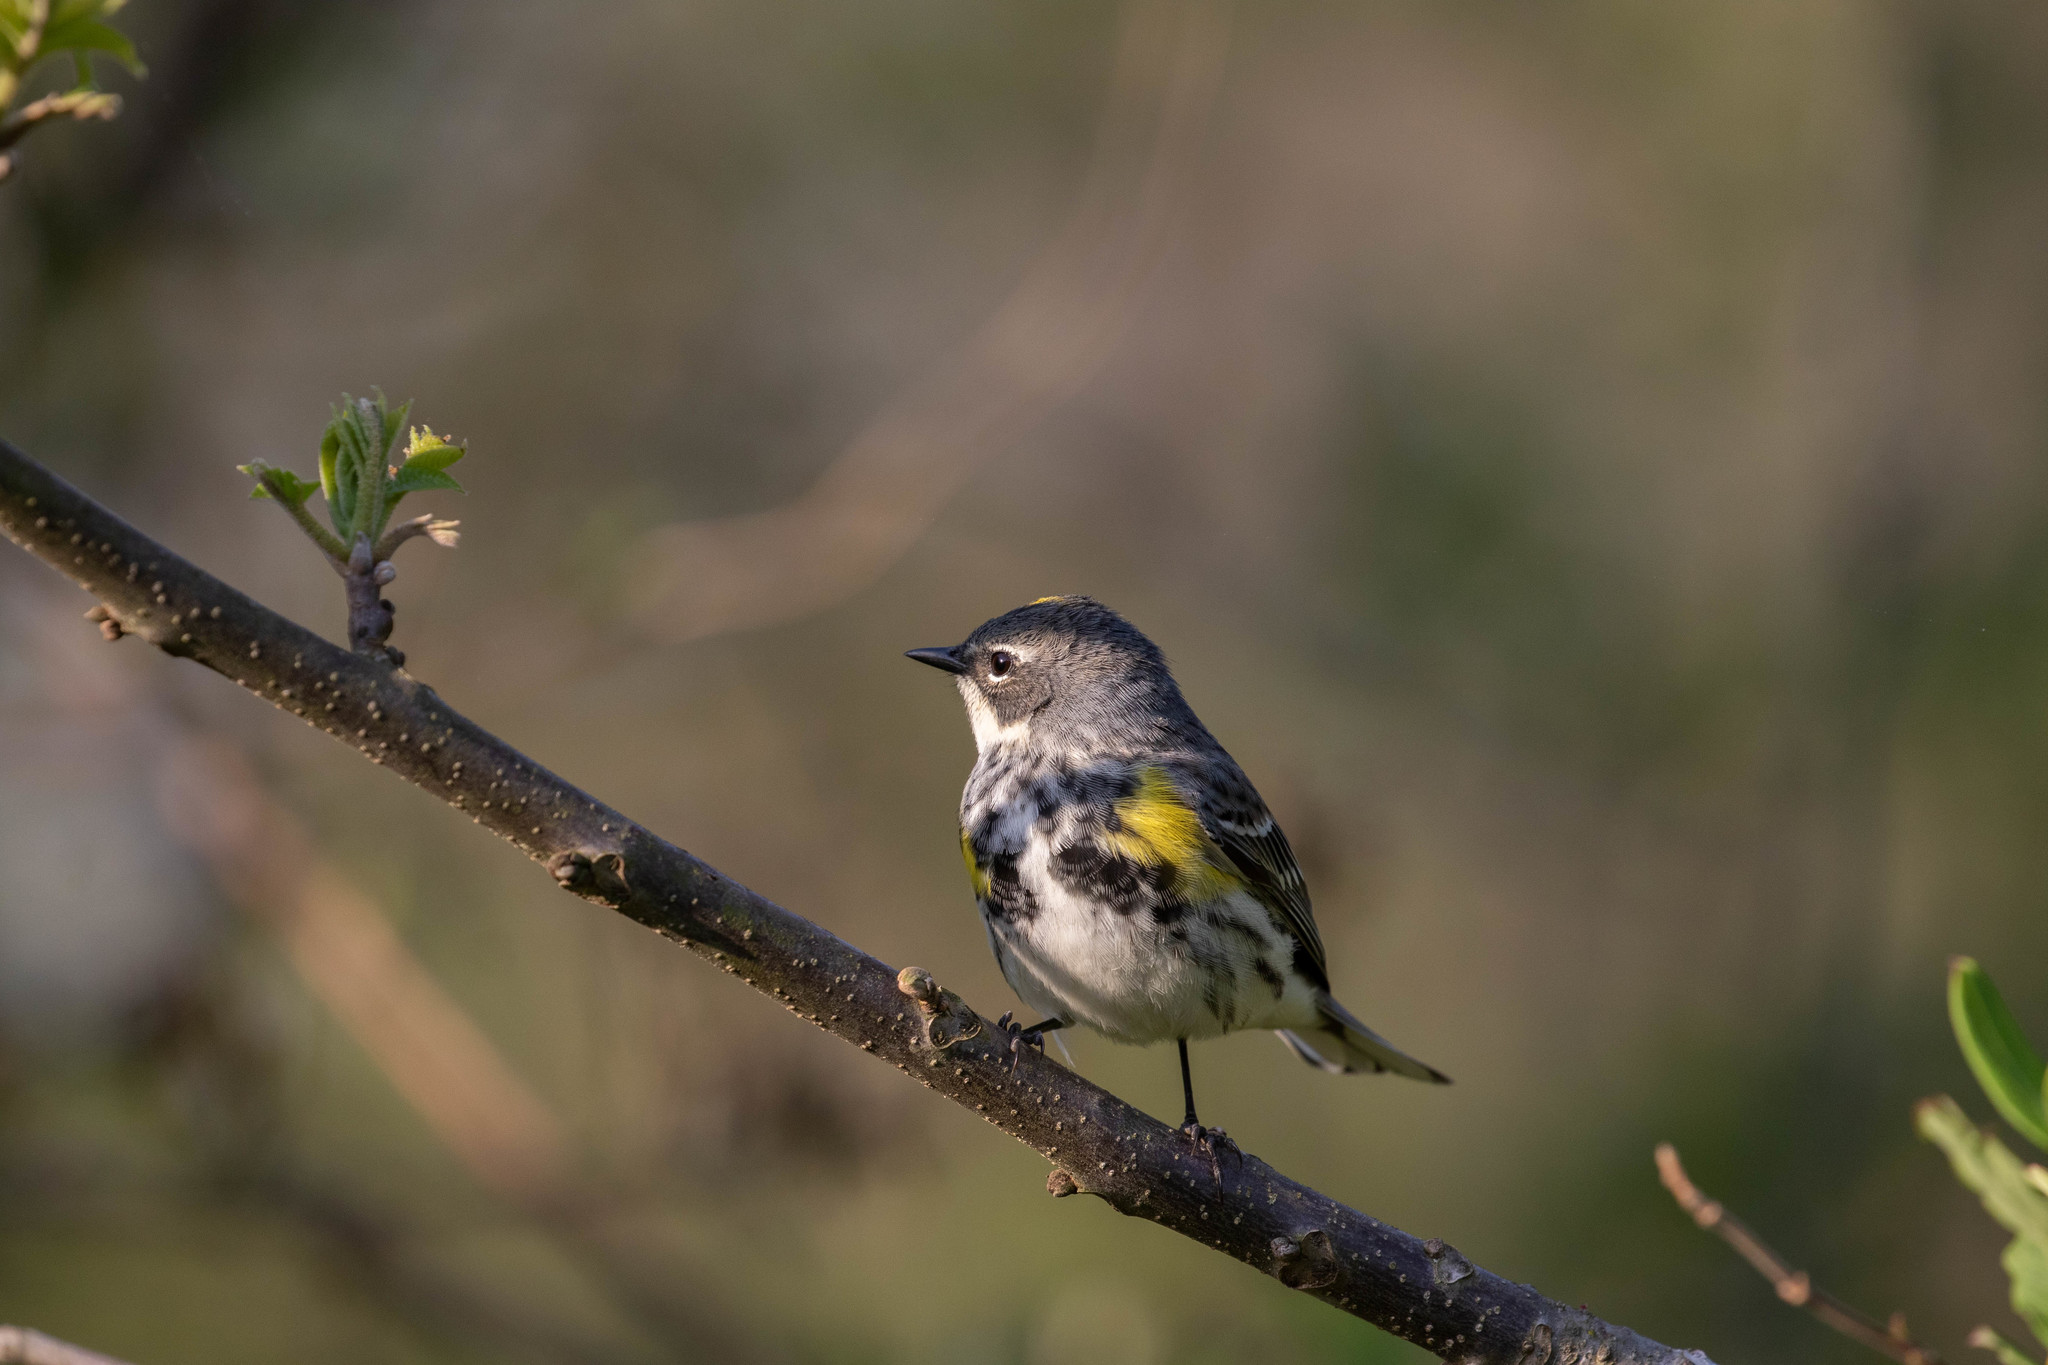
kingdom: Animalia
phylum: Chordata
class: Aves
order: Passeriformes
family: Parulidae
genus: Setophaga
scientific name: Setophaga coronata
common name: Myrtle warbler
